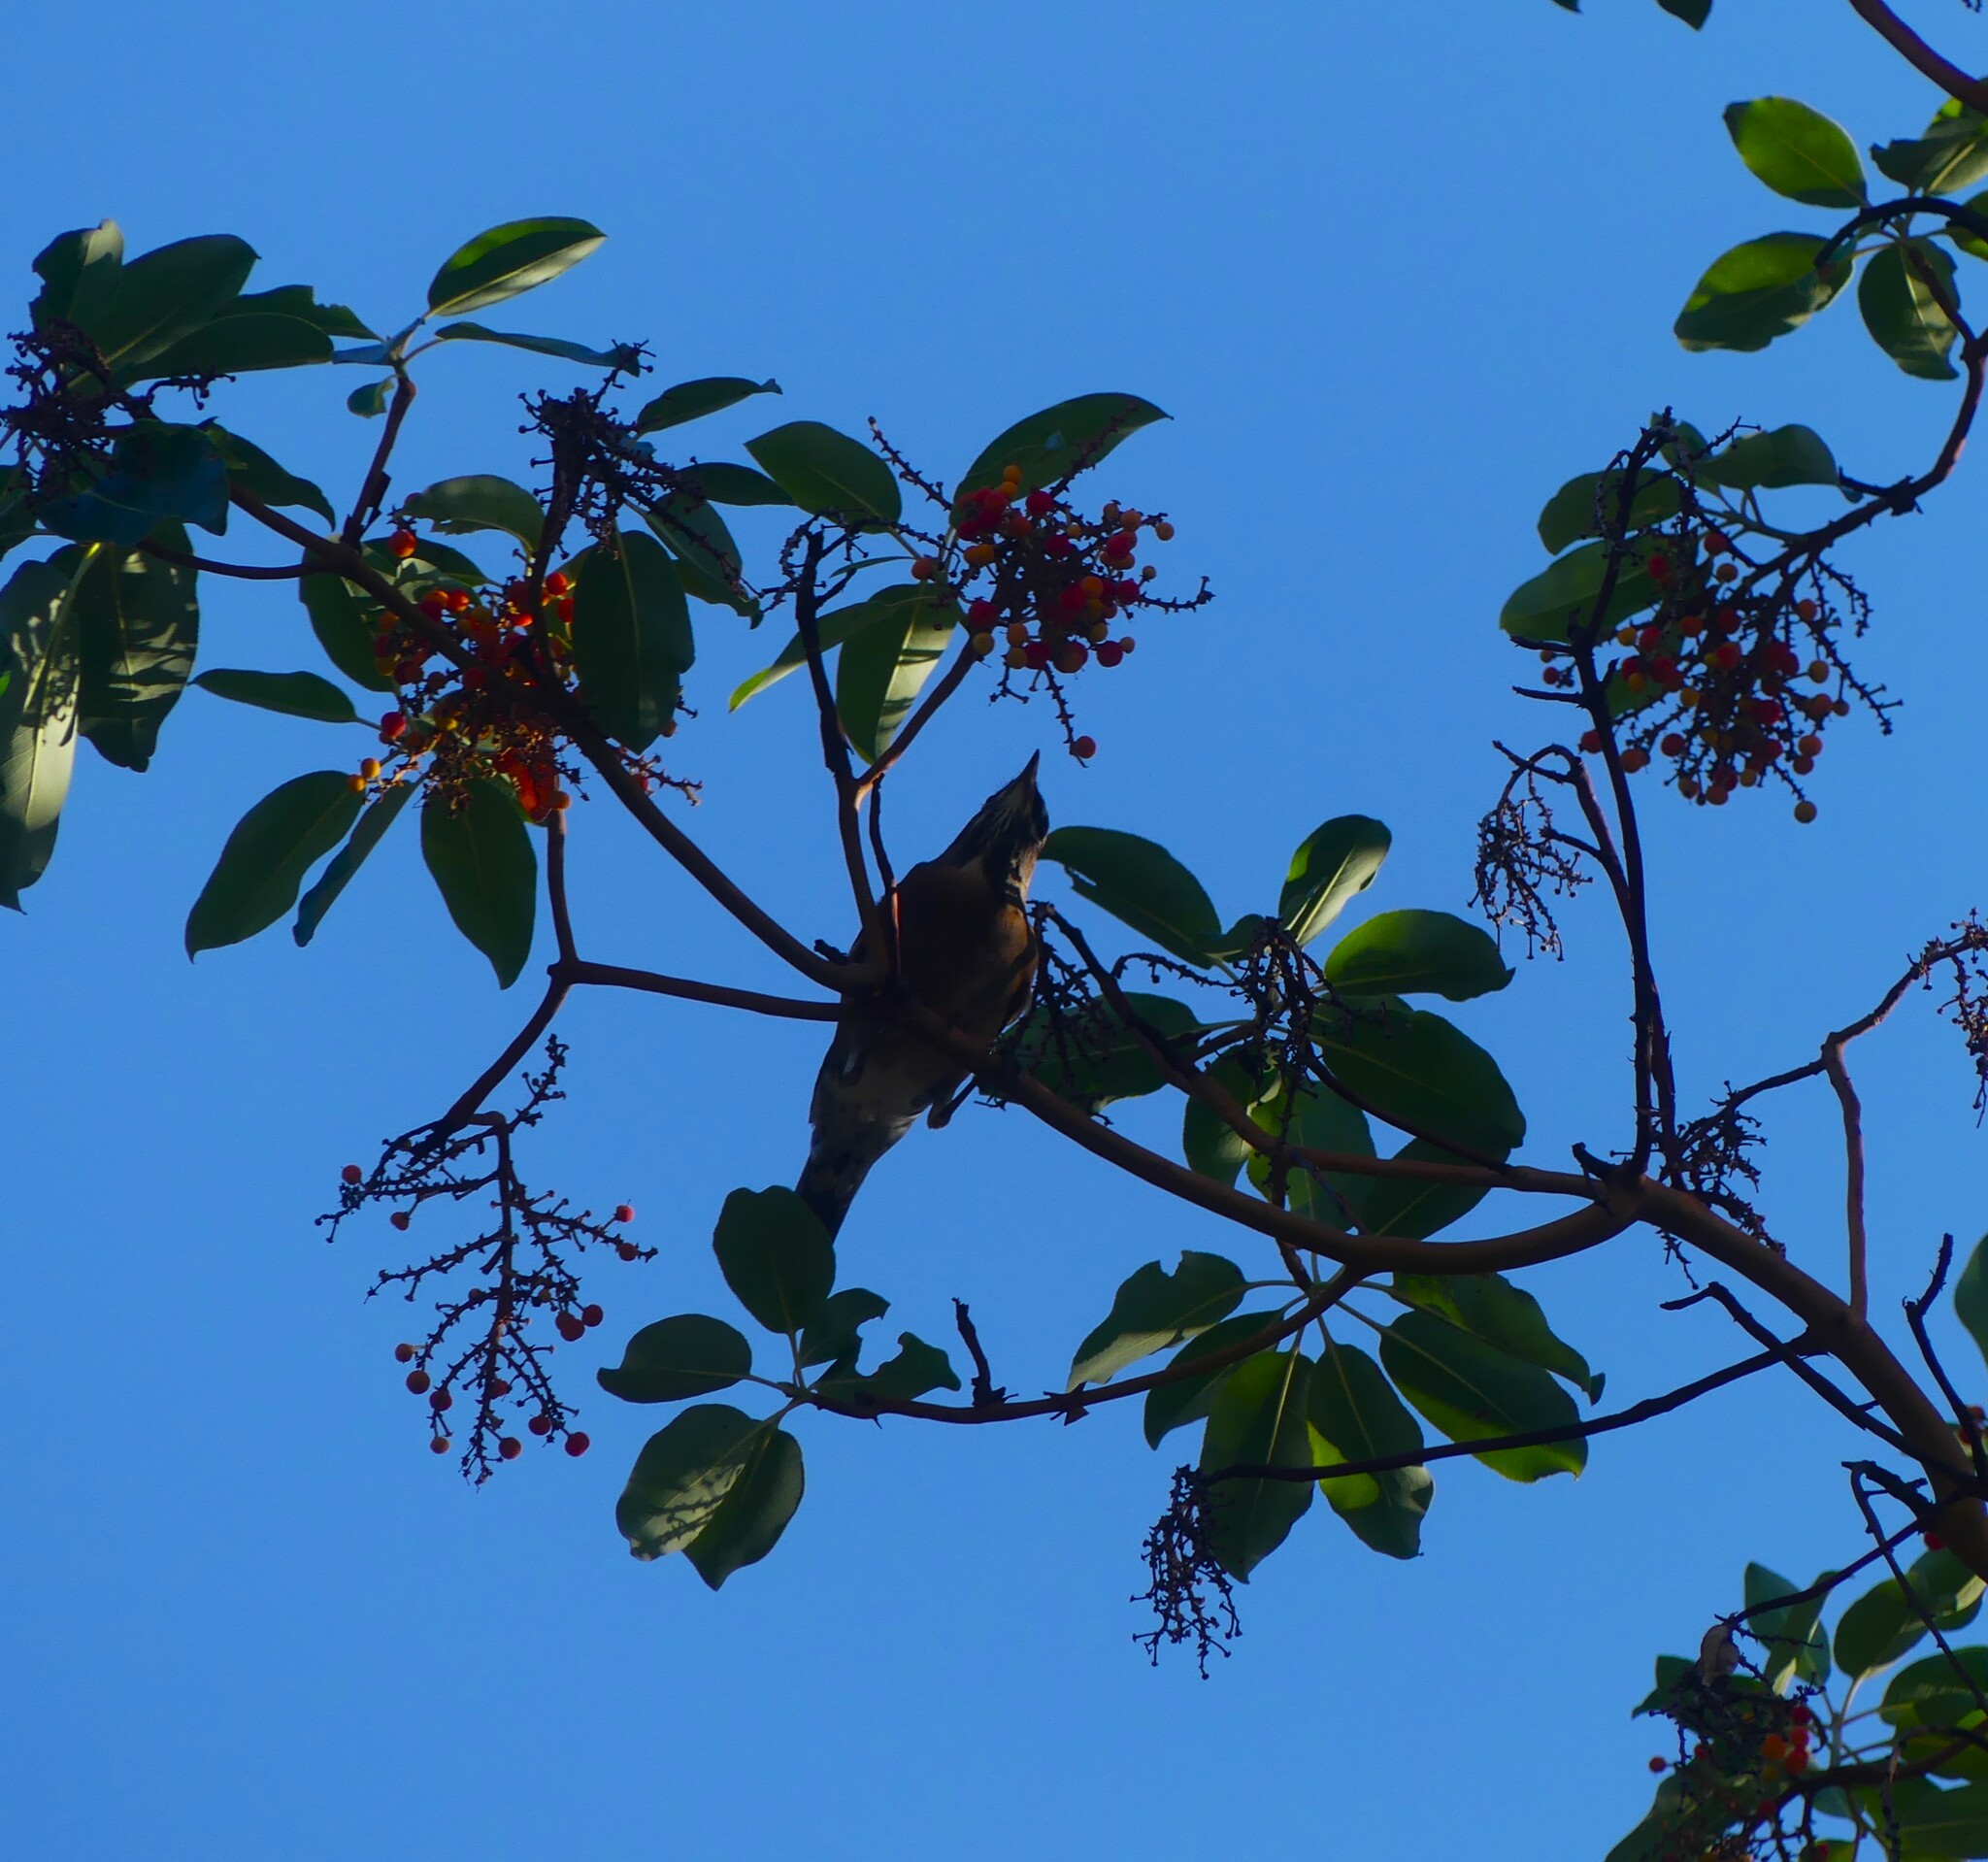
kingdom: Animalia
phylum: Chordata
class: Aves
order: Passeriformes
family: Turdidae
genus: Turdus
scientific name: Turdus migratorius
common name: American robin
